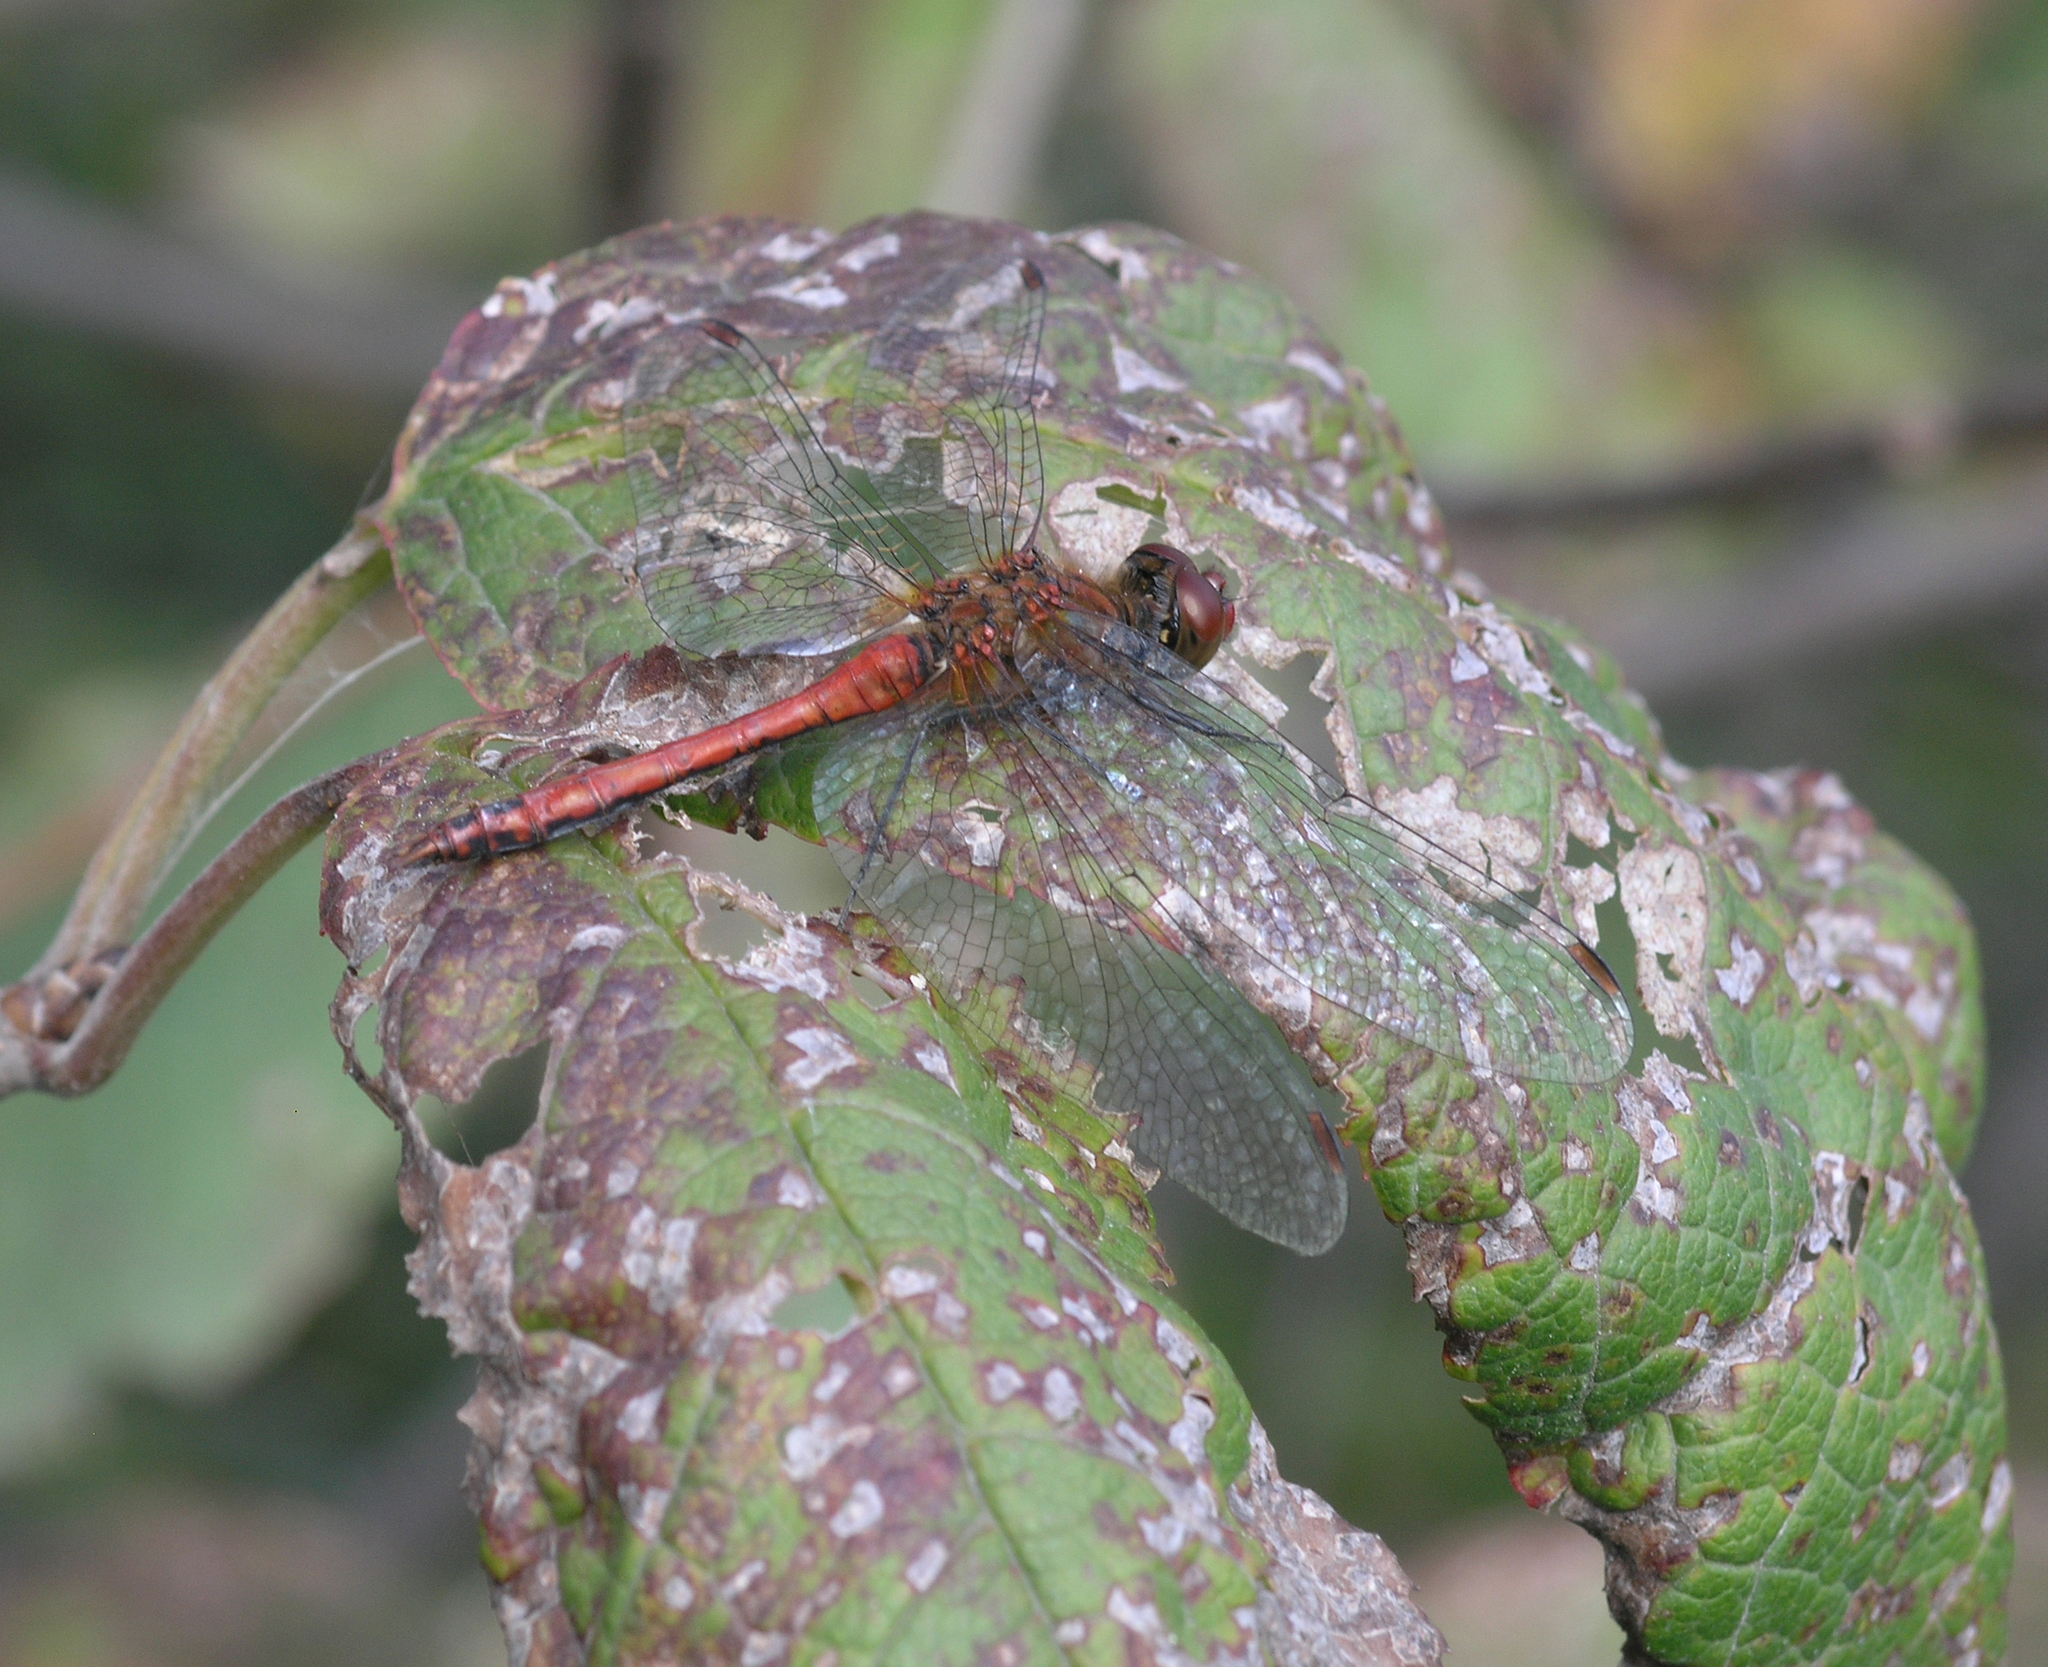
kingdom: Animalia
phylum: Arthropoda
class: Insecta
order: Odonata
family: Libellulidae
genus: Sympetrum
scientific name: Sympetrum sanguineum
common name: Ruddy darter
